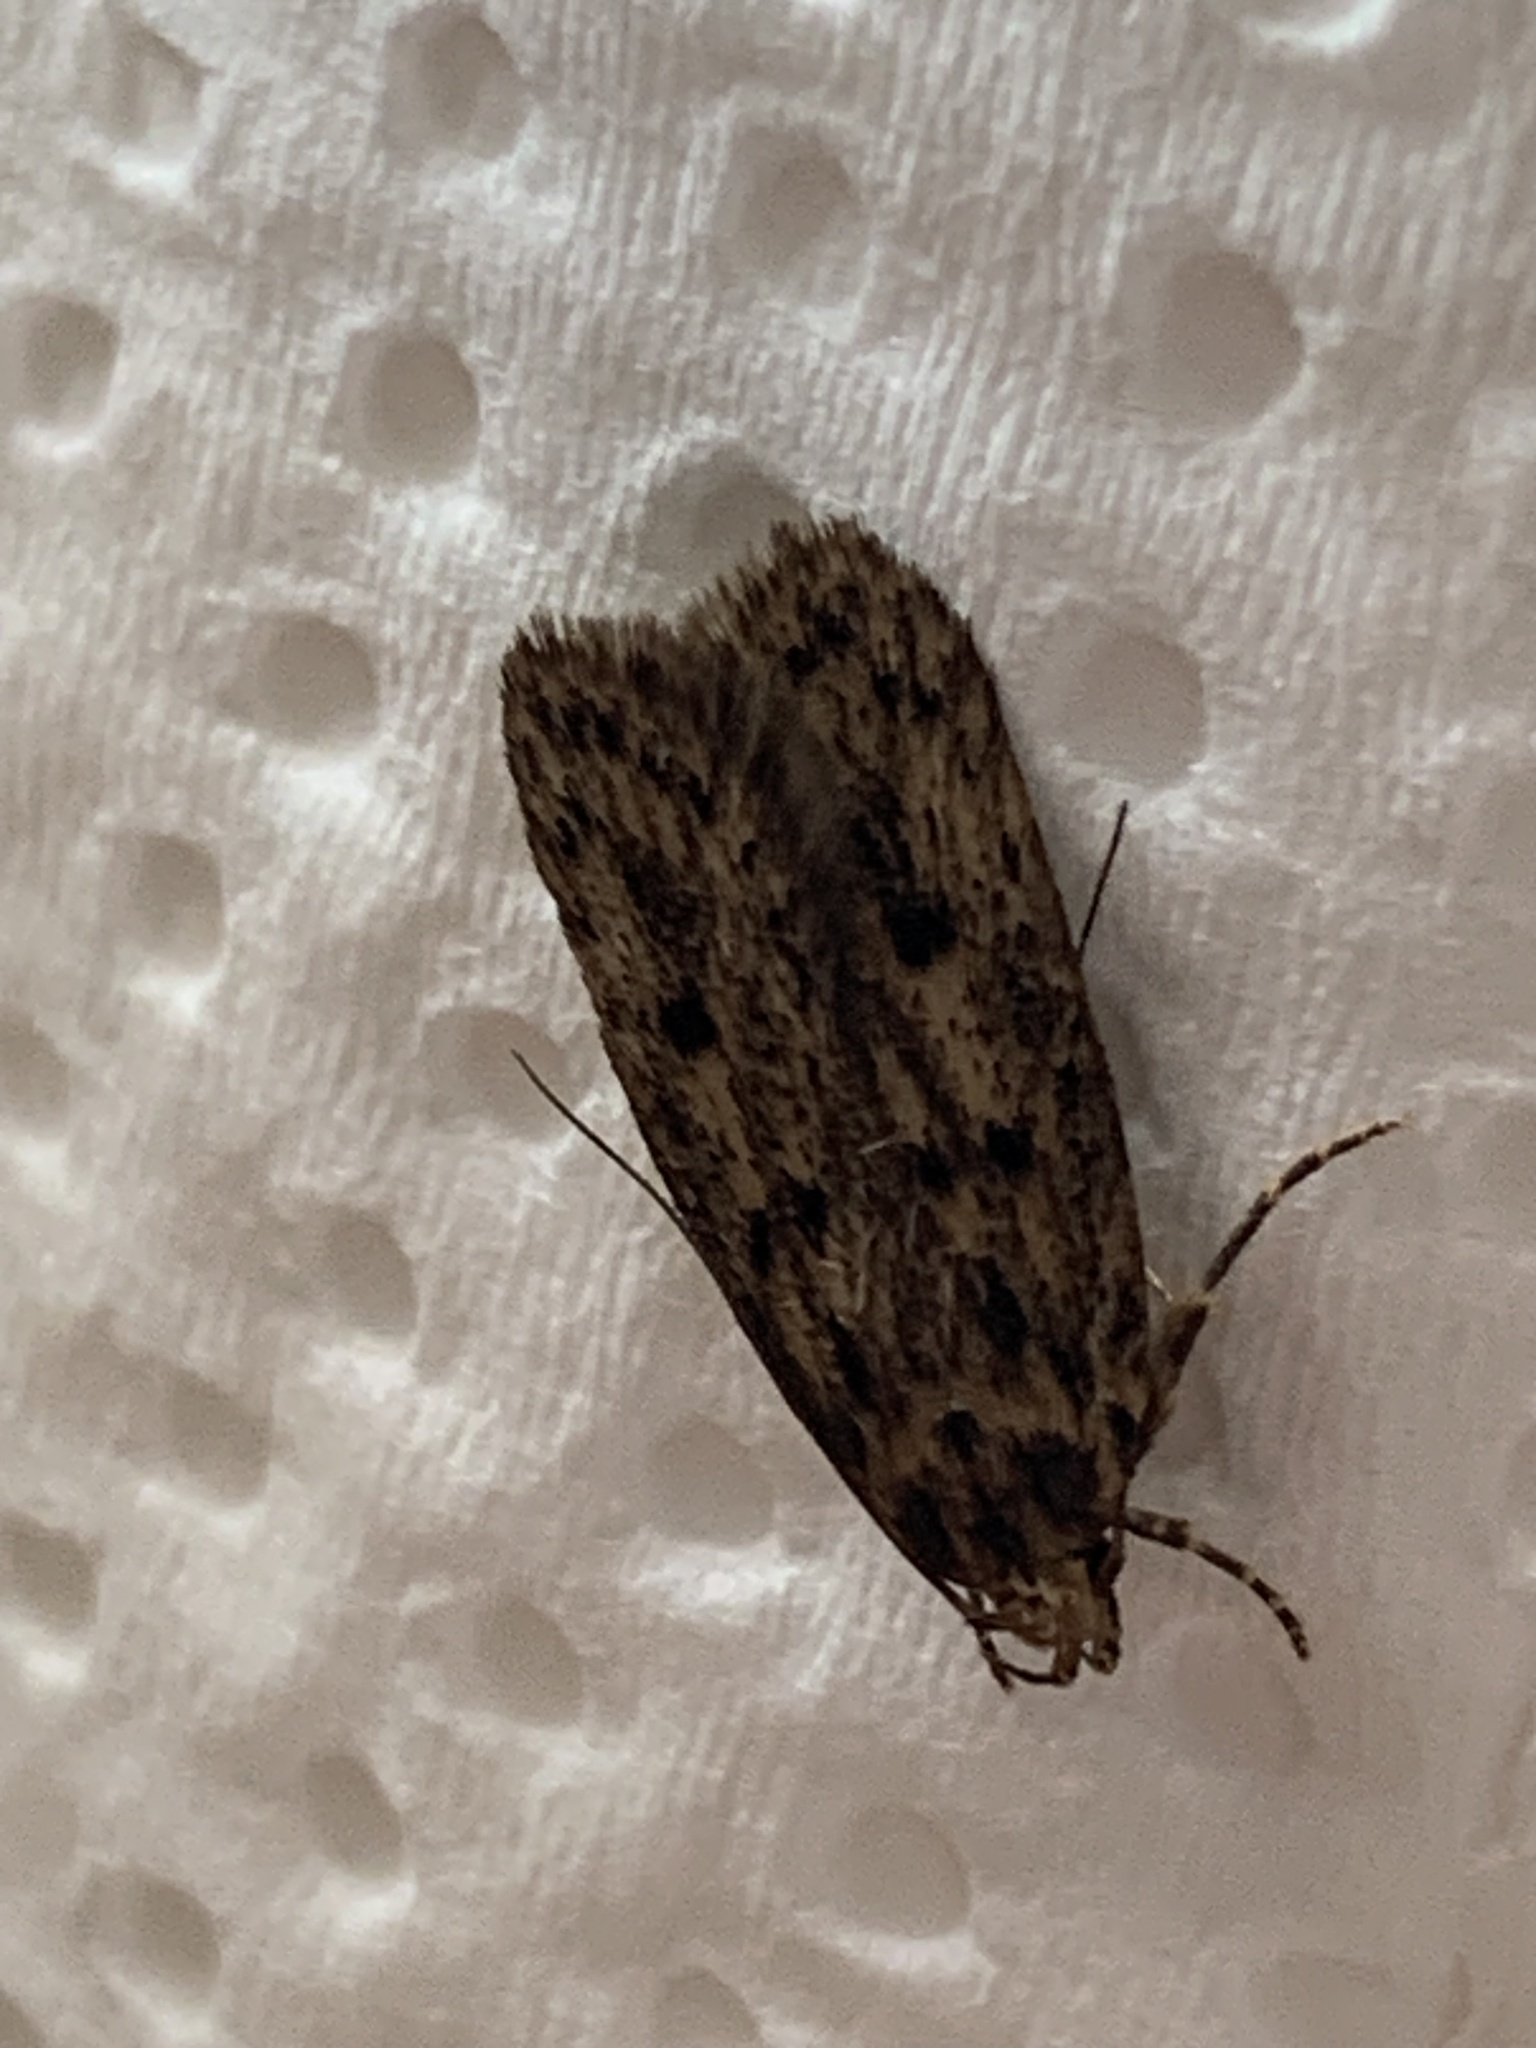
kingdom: Animalia
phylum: Arthropoda
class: Insecta
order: Lepidoptera
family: Oecophoridae
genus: Hofmannophila
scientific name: Hofmannophila pseudospretella
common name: Brown house moth
